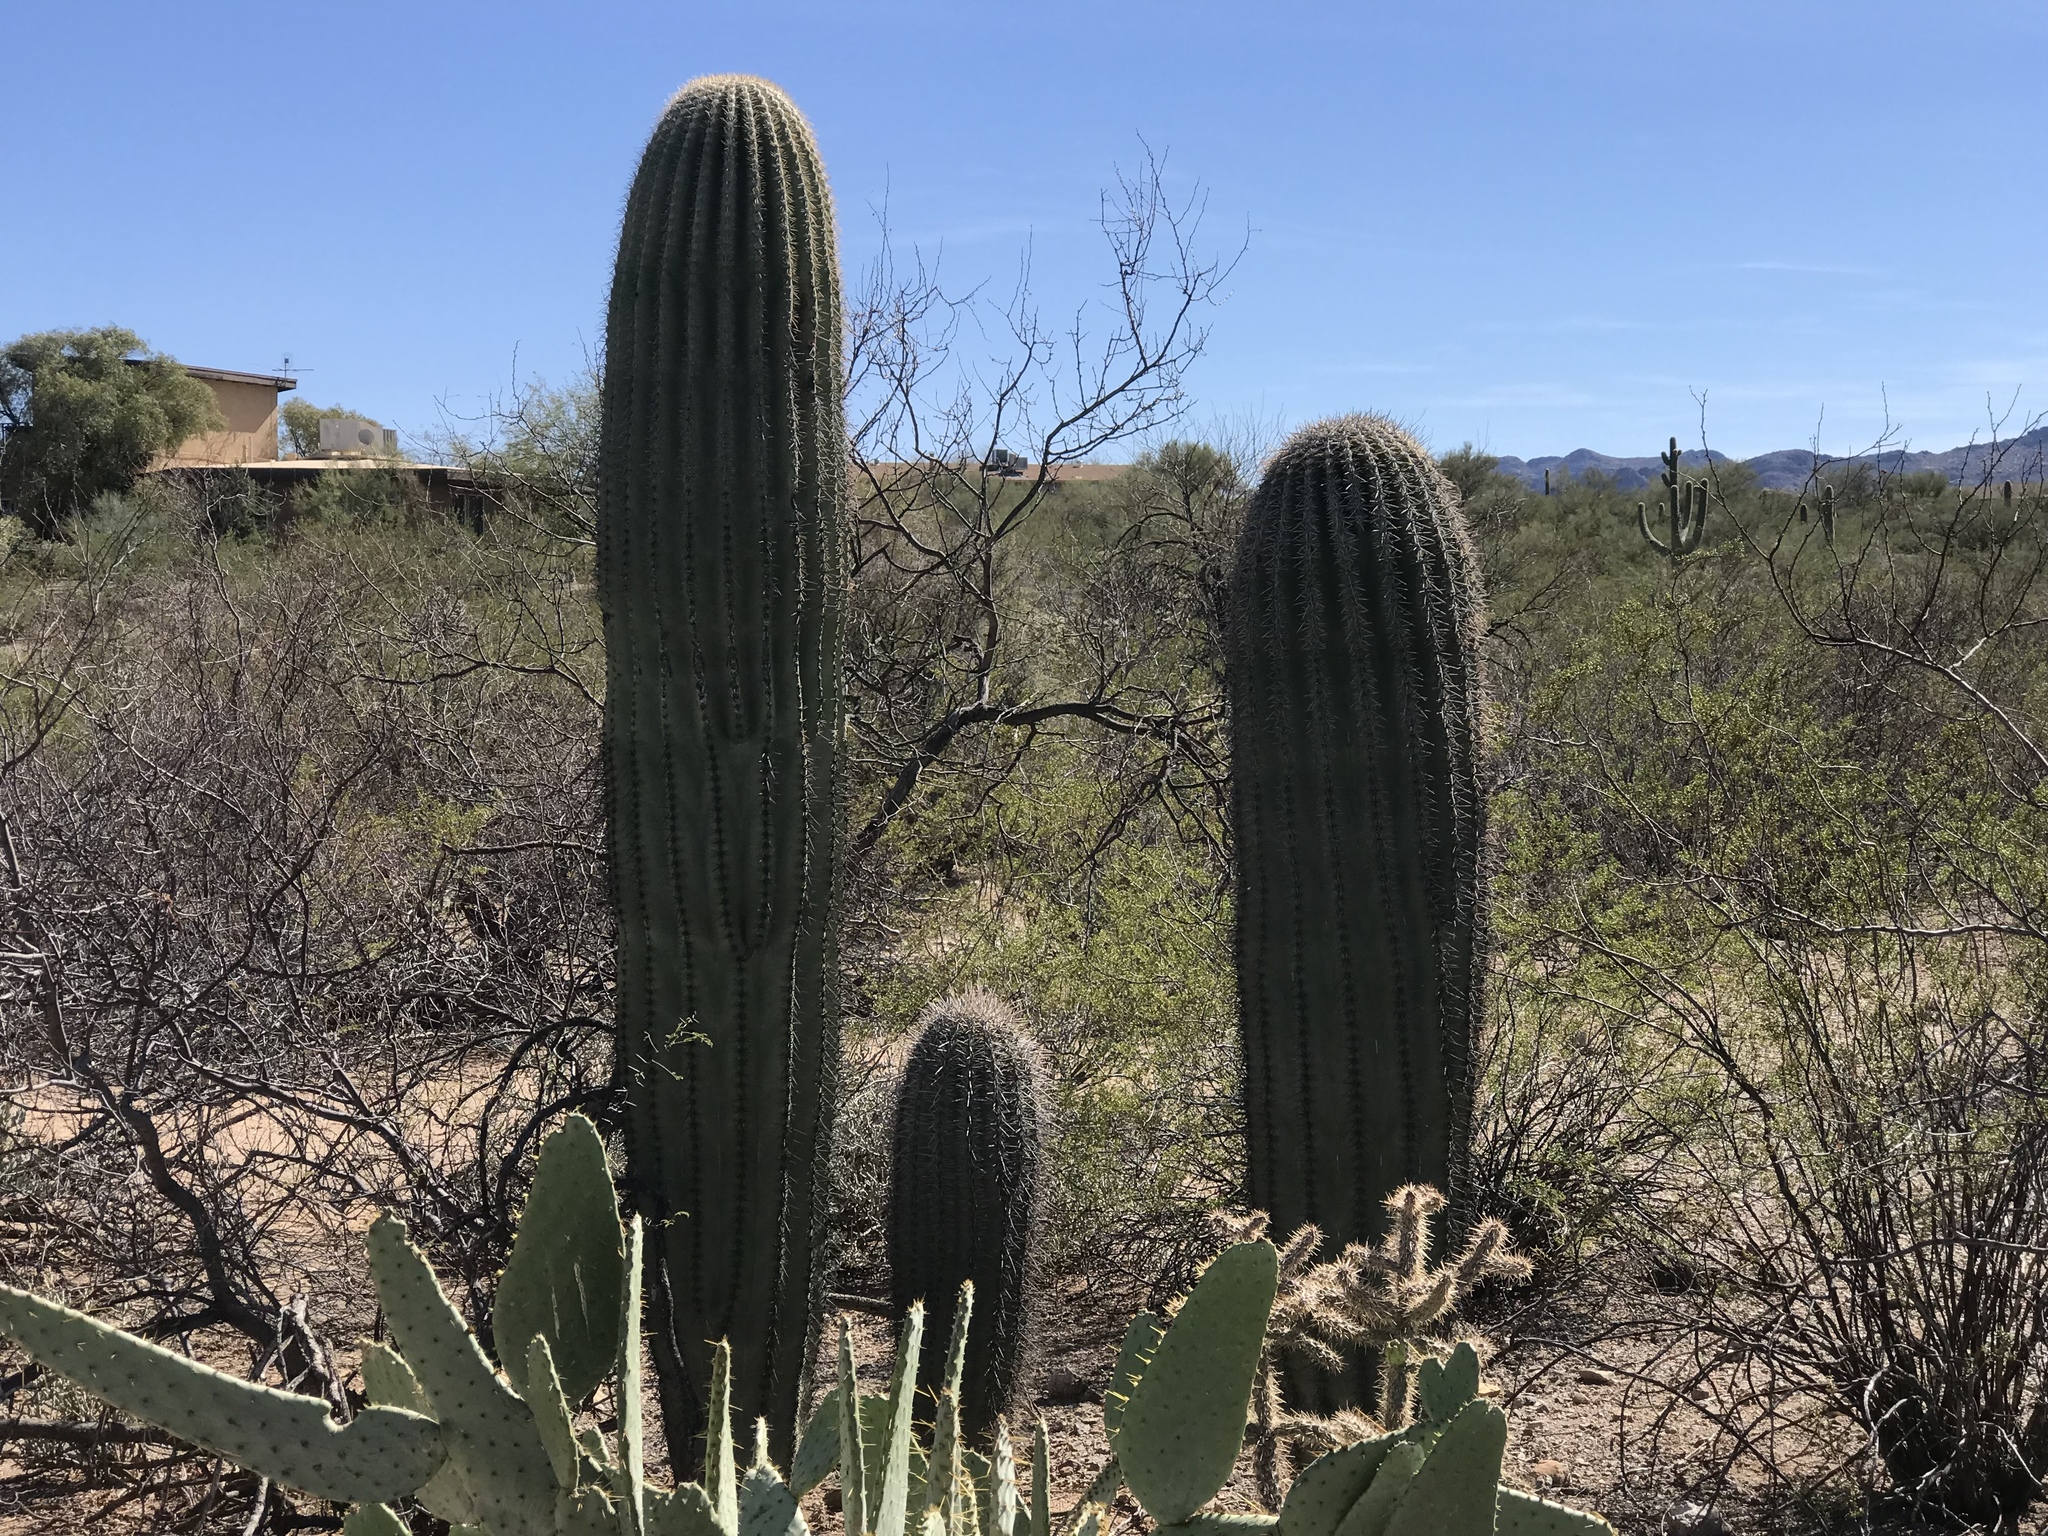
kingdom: Plantae
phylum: Tracheophyta
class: Magnoliopsida
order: Caryophyllales
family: Cactaceae
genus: Carnegiea
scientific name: Carnegiea gigantea
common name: Saguaro
